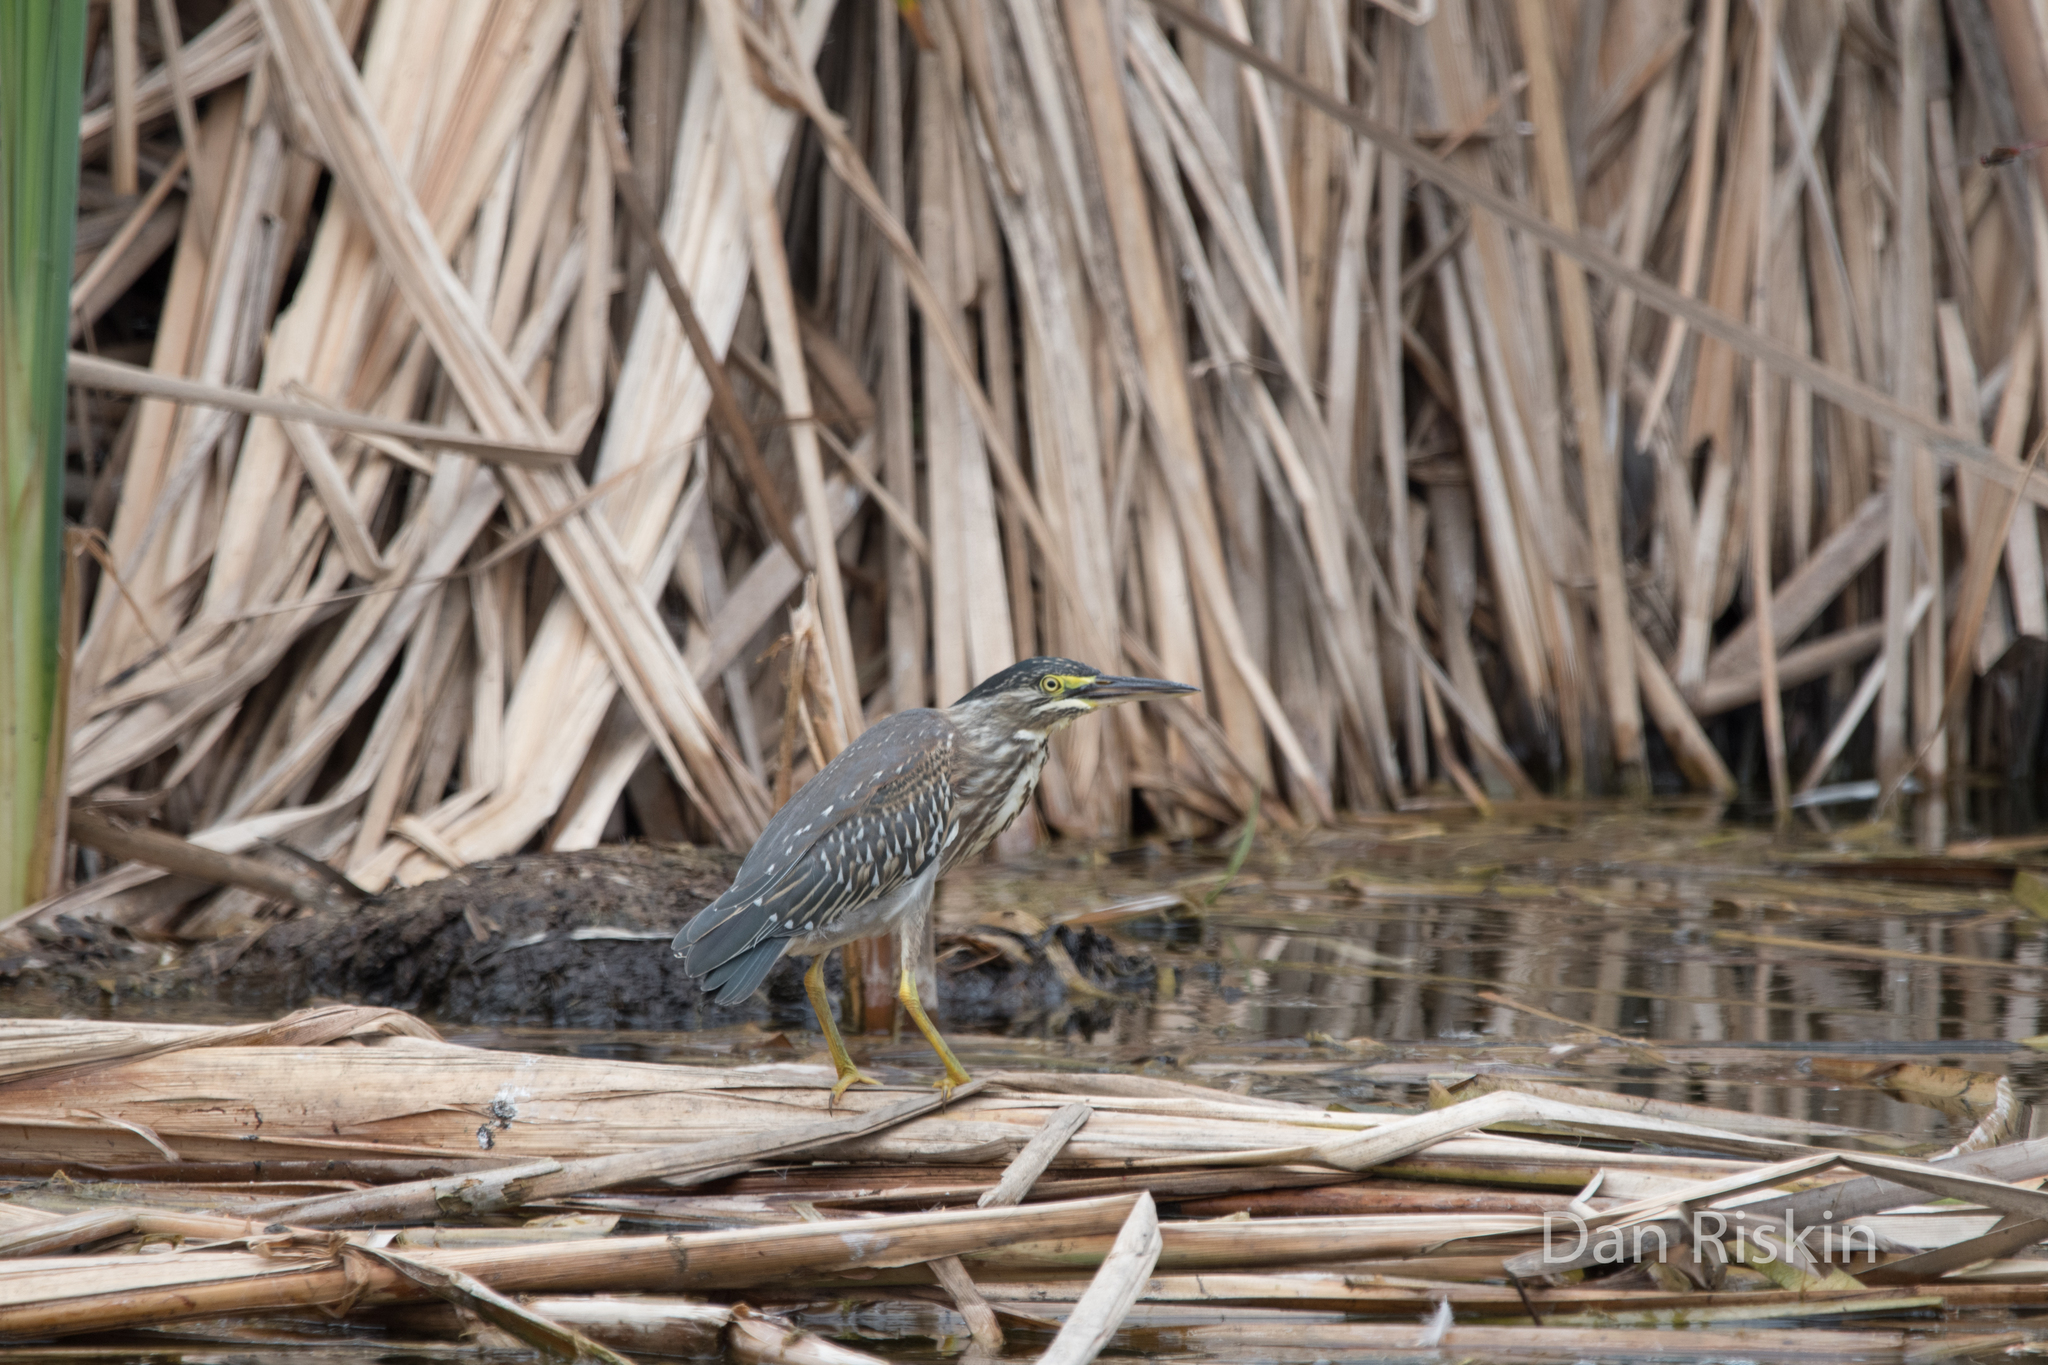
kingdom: Animalia
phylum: Chordata
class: Aves
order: Pelecaniformes
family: Ardeidae
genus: Butorides
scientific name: Butorides striata
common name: Striated heron
